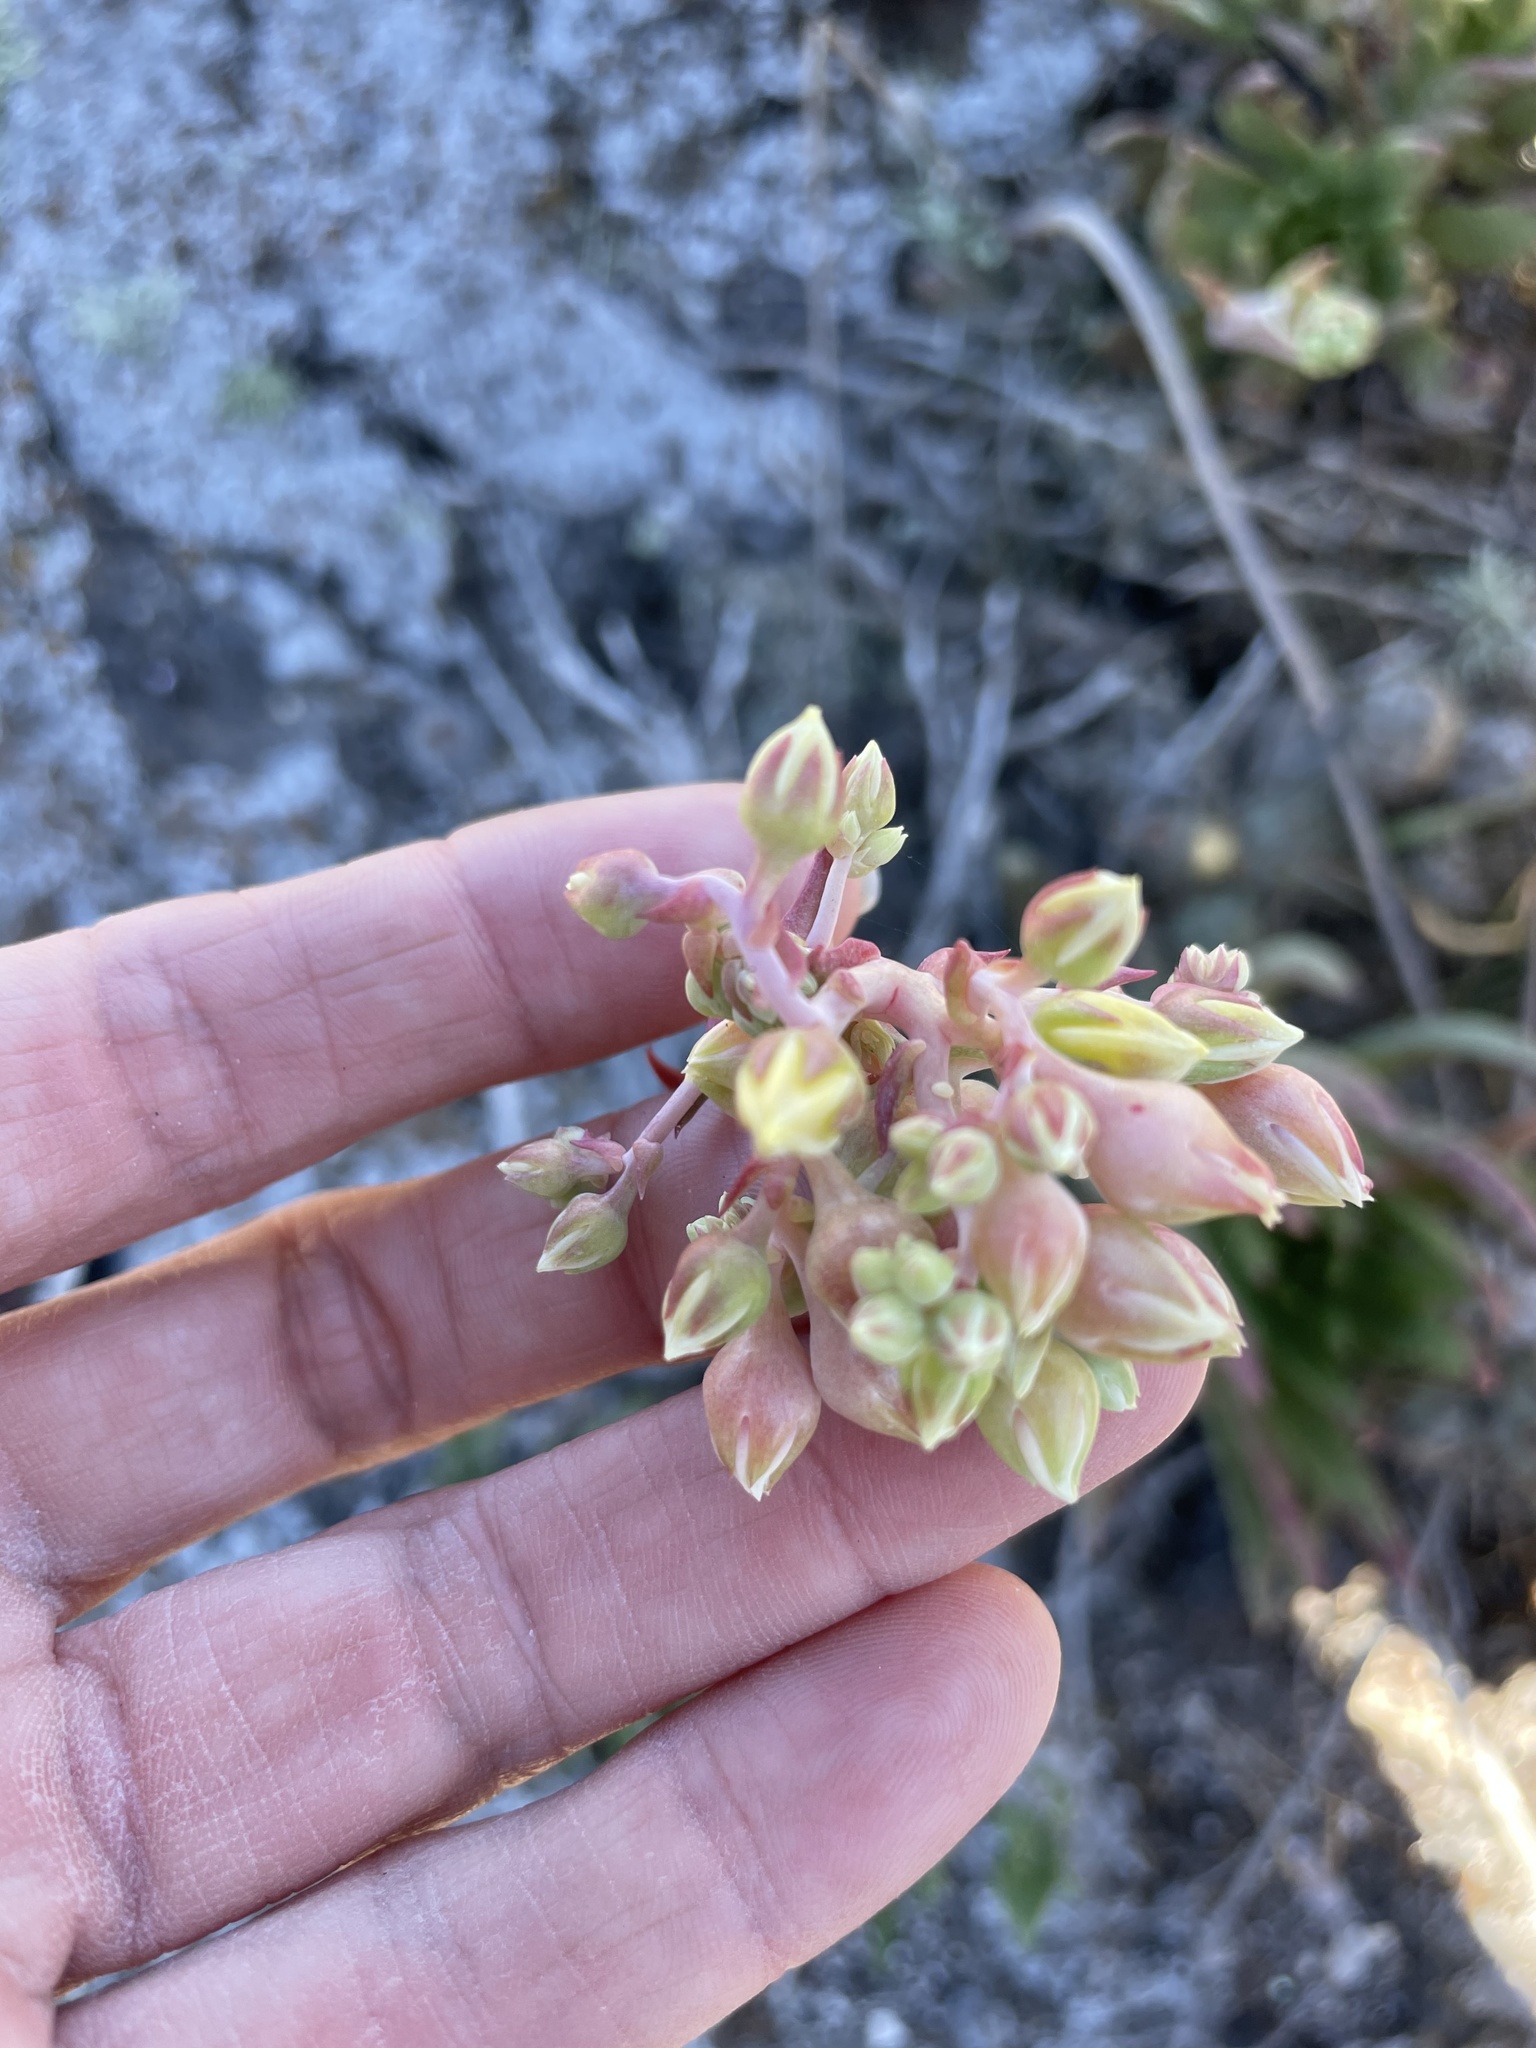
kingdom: Plantae
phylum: Tracheophyta
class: Magnoliopsida
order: Saxifragales
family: Crassulaceae
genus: Dudleya
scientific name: Dudleya cultrata
